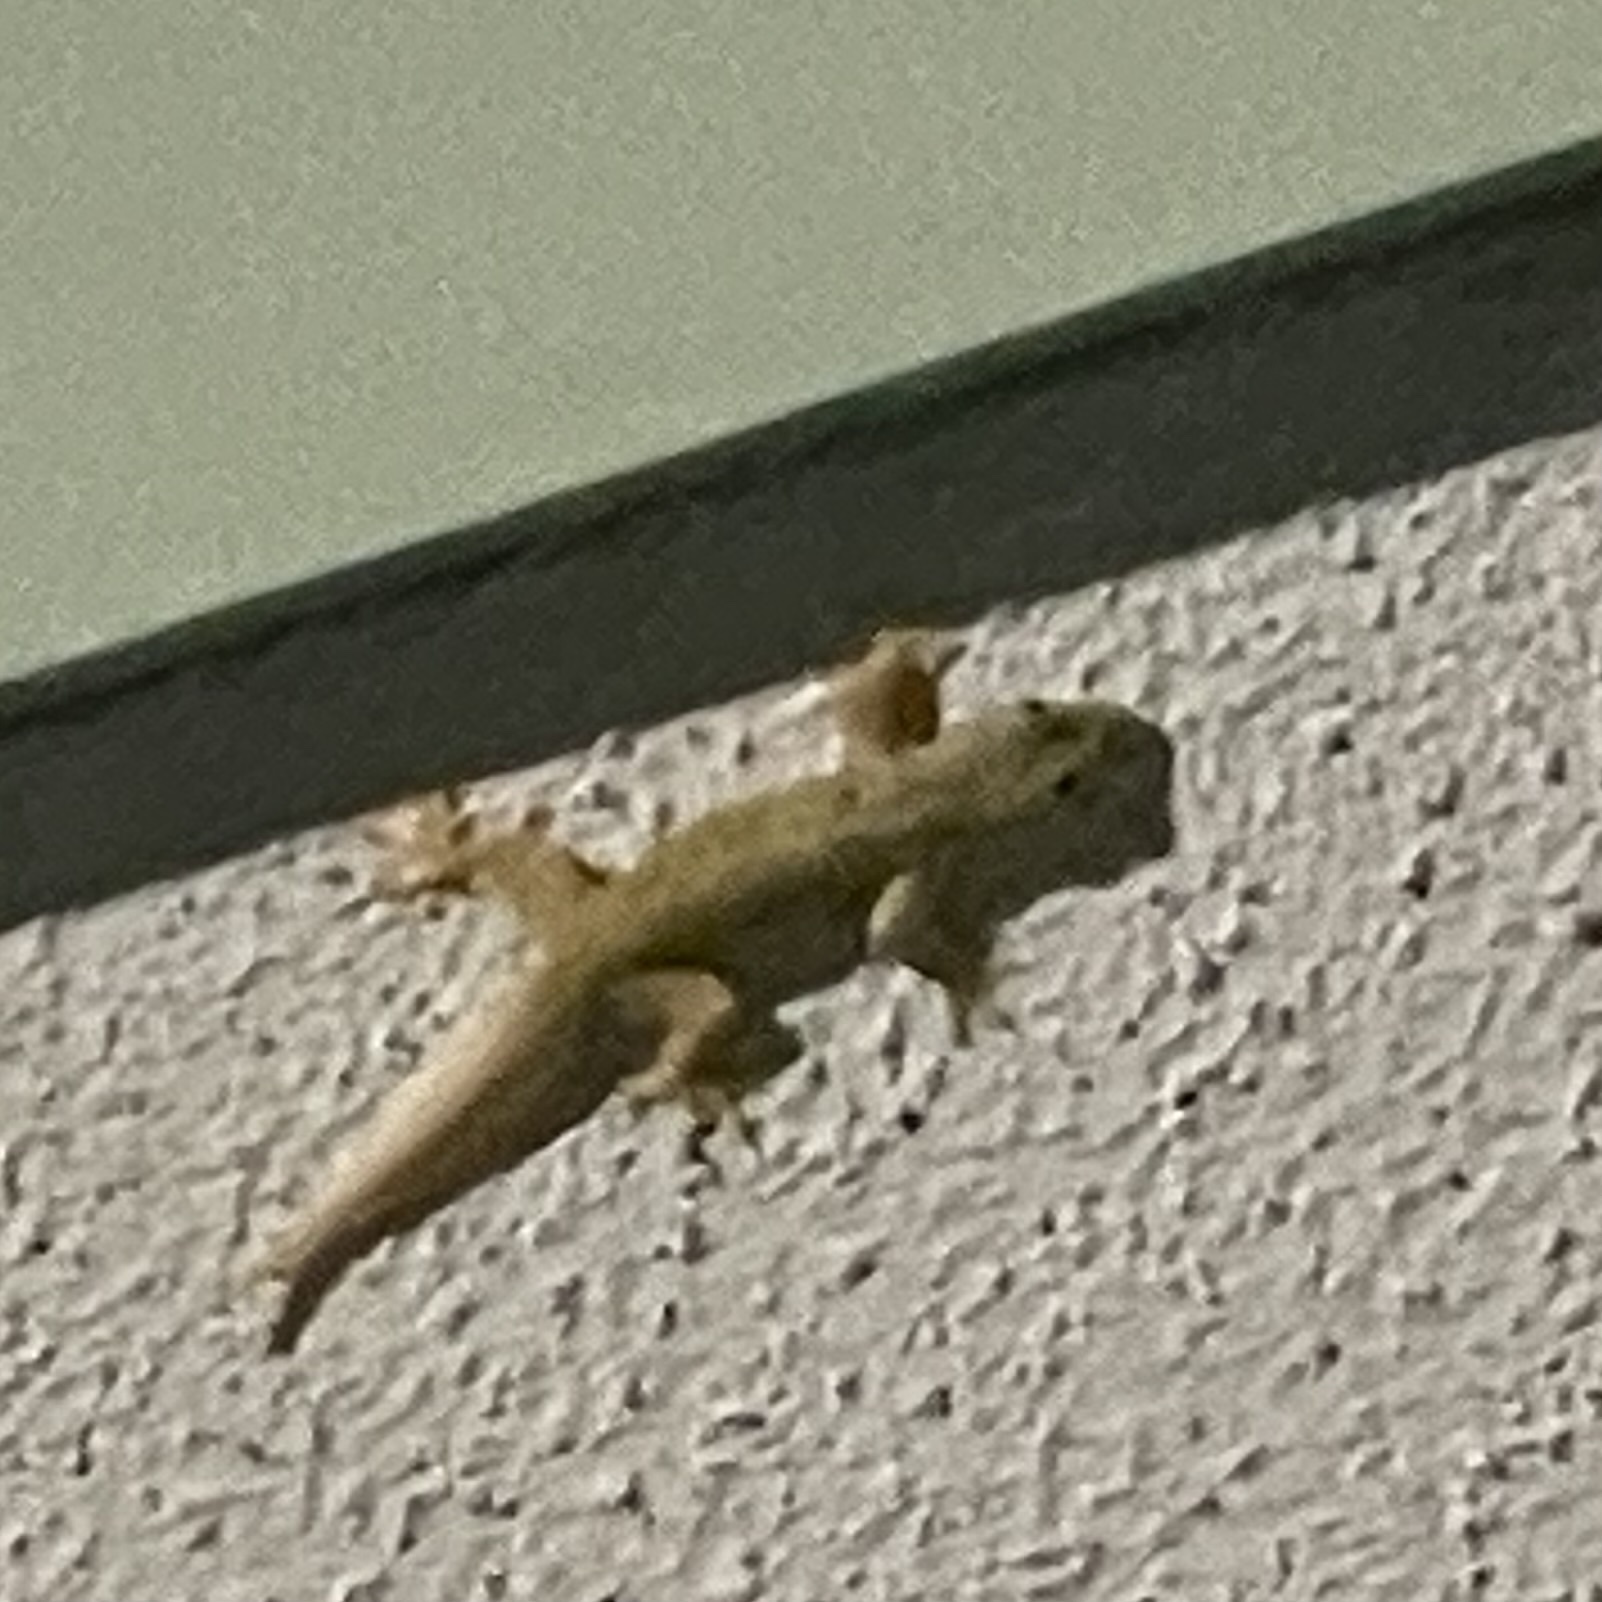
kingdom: Animalia
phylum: Chordata
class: Squamata
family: Gekkonidae
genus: Hemidactylus
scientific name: Hemidactylus platyurus
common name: Flat-tailed house gecko
